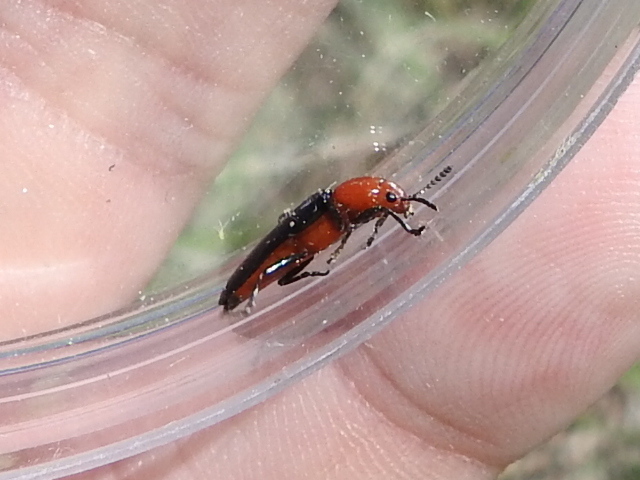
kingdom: Animalia
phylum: Arthropoda
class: Insecta
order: Coleoptera
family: Erotylidae
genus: Languria
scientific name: Languria bicolor
